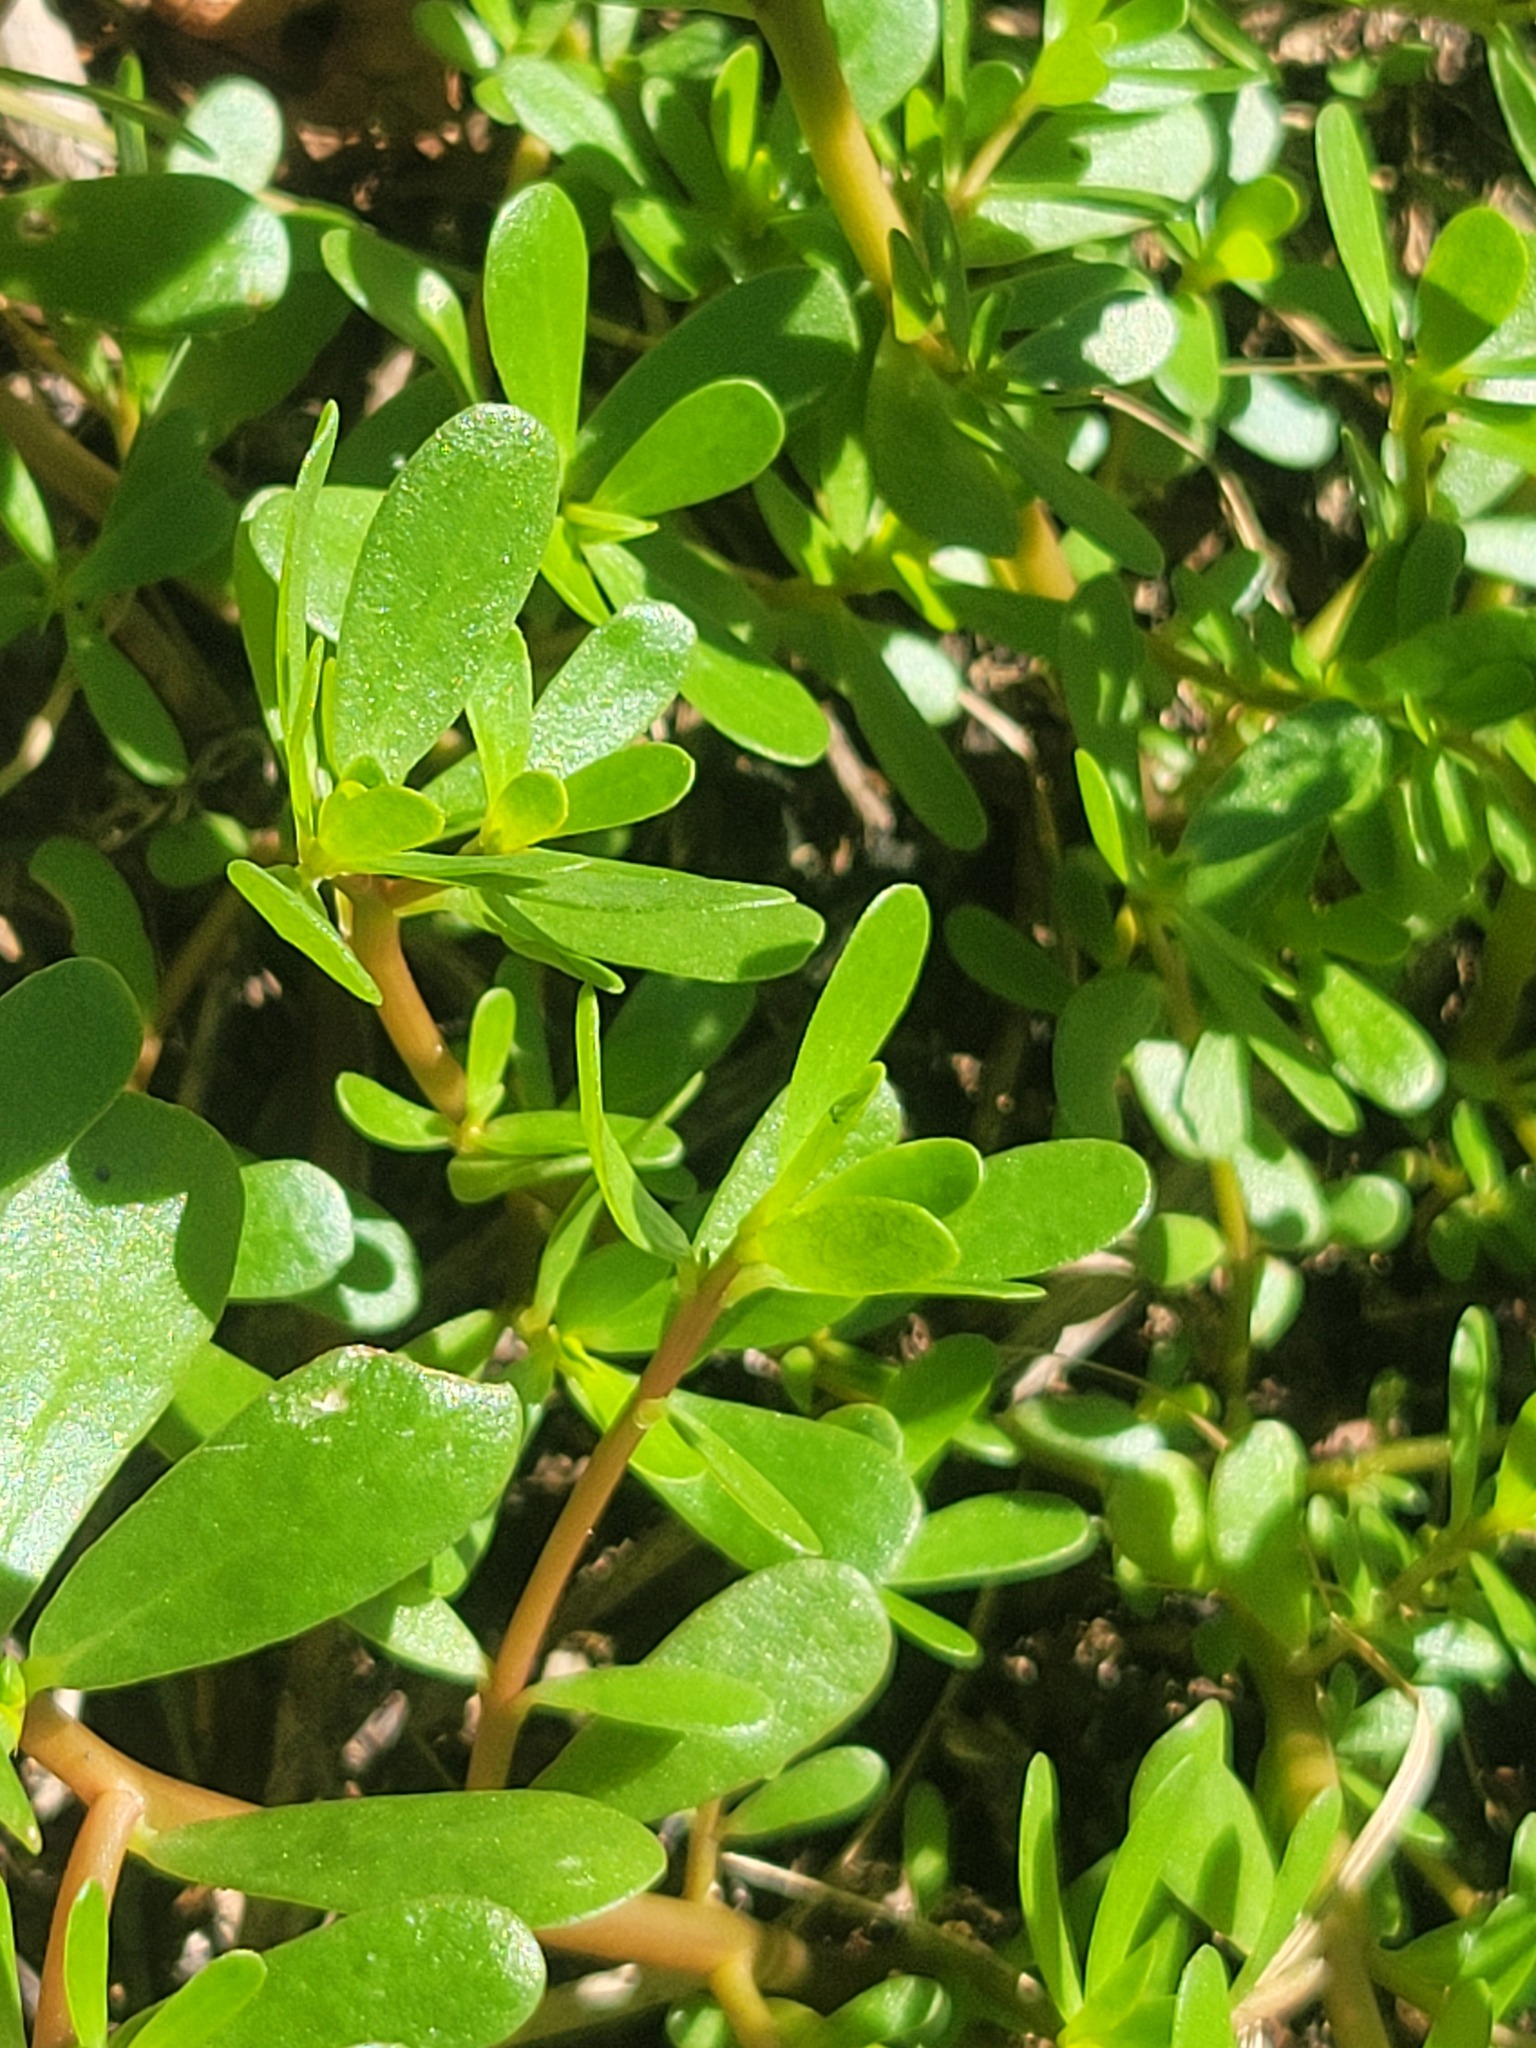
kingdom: Plantae
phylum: Tracheophyta
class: Magnoliopsida
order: Caryophyllales
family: Portulacaceae
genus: Portulaca
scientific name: Portulaca oleracea
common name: Common purslane
